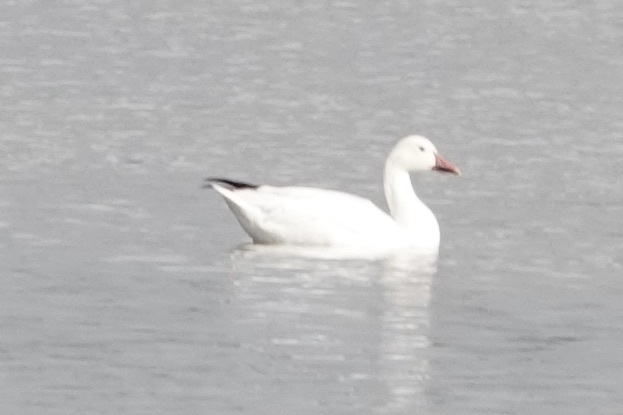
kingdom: Animalia
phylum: Chordata
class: Aves
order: Anseriformes
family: Anatidae
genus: Anser
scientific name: Anser caerulescens
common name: Snow goose
